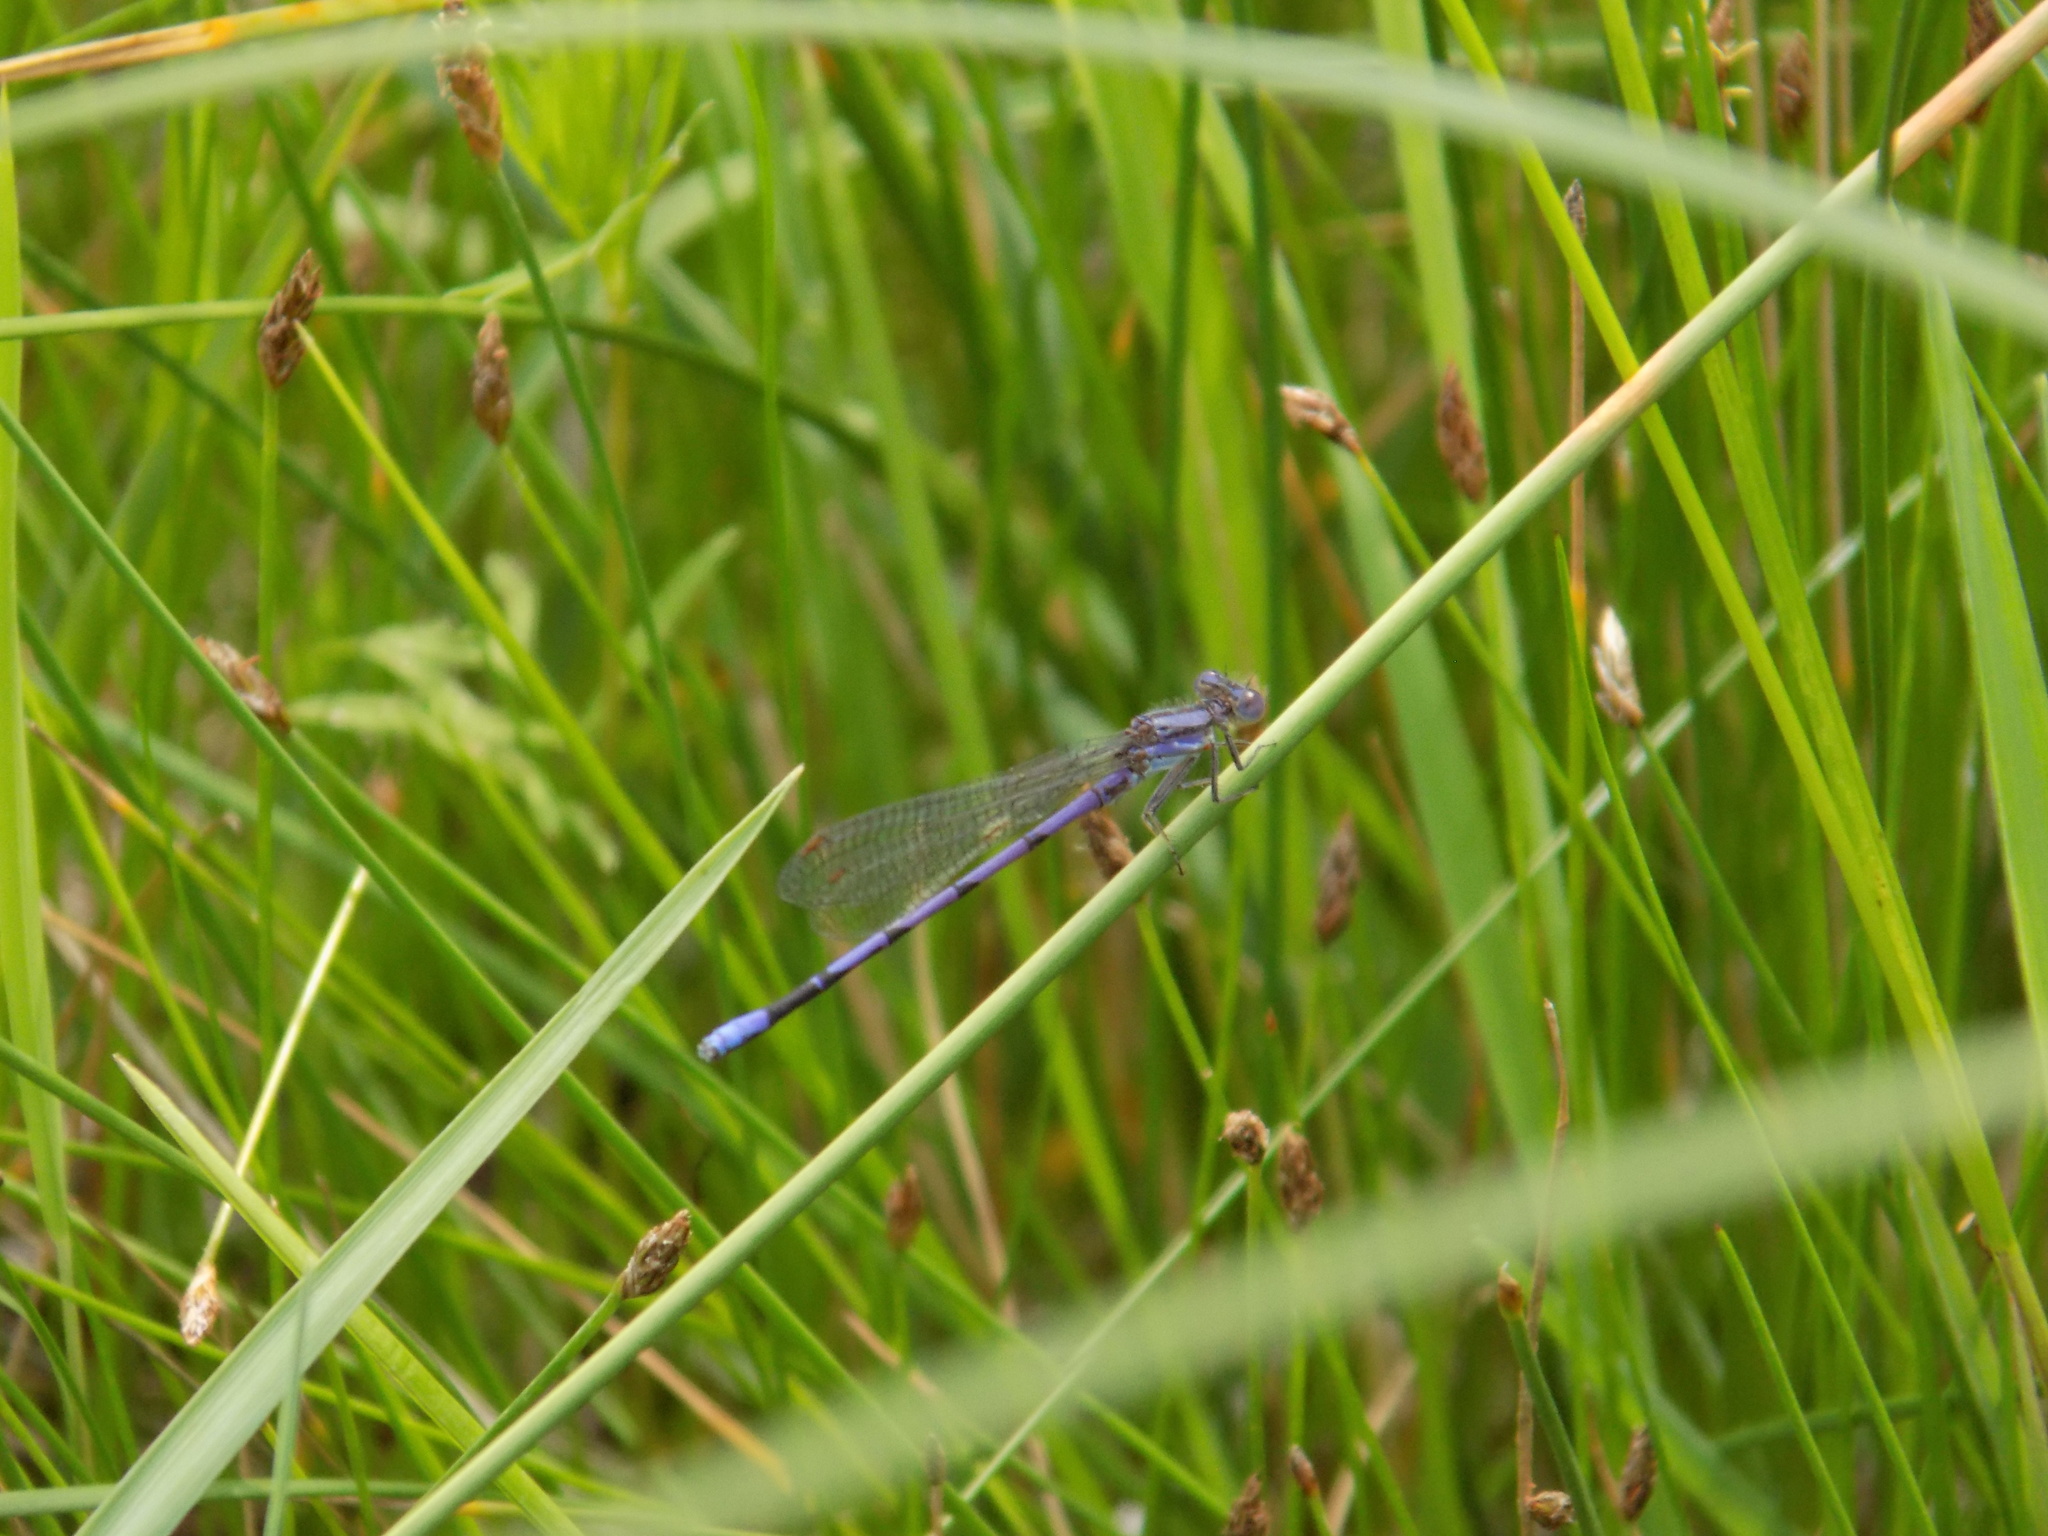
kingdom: Animalia
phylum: Arthropoda
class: Insecta
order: Odonata
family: Coenagrionidae
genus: Argia
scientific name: Argia fumipennis
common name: Variable dancer
